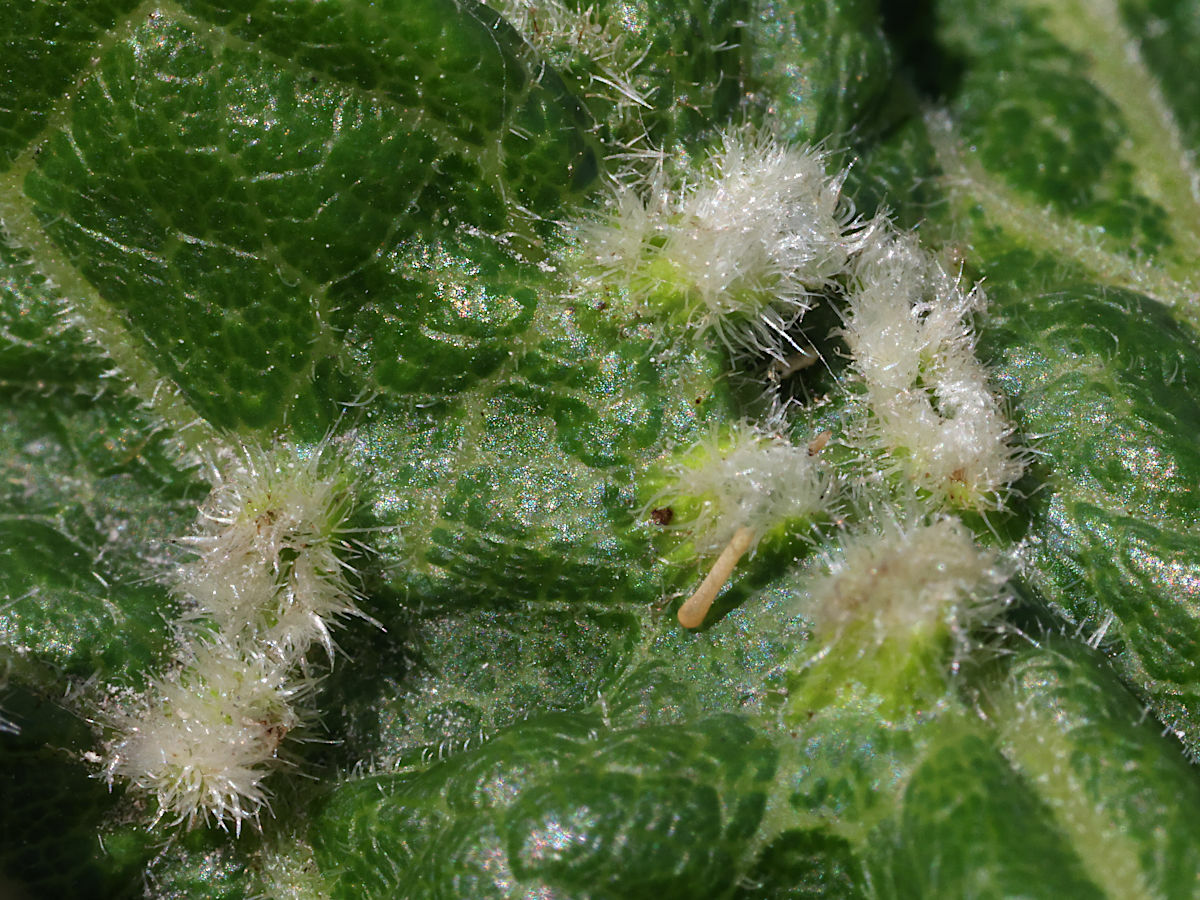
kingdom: Animalia
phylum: Arthropoda
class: Insecta
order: Hemiptera
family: Phylloxeridae
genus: Daktulosphaira
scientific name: Daktulosphaira vitifoliae
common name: Grape phylloxera
